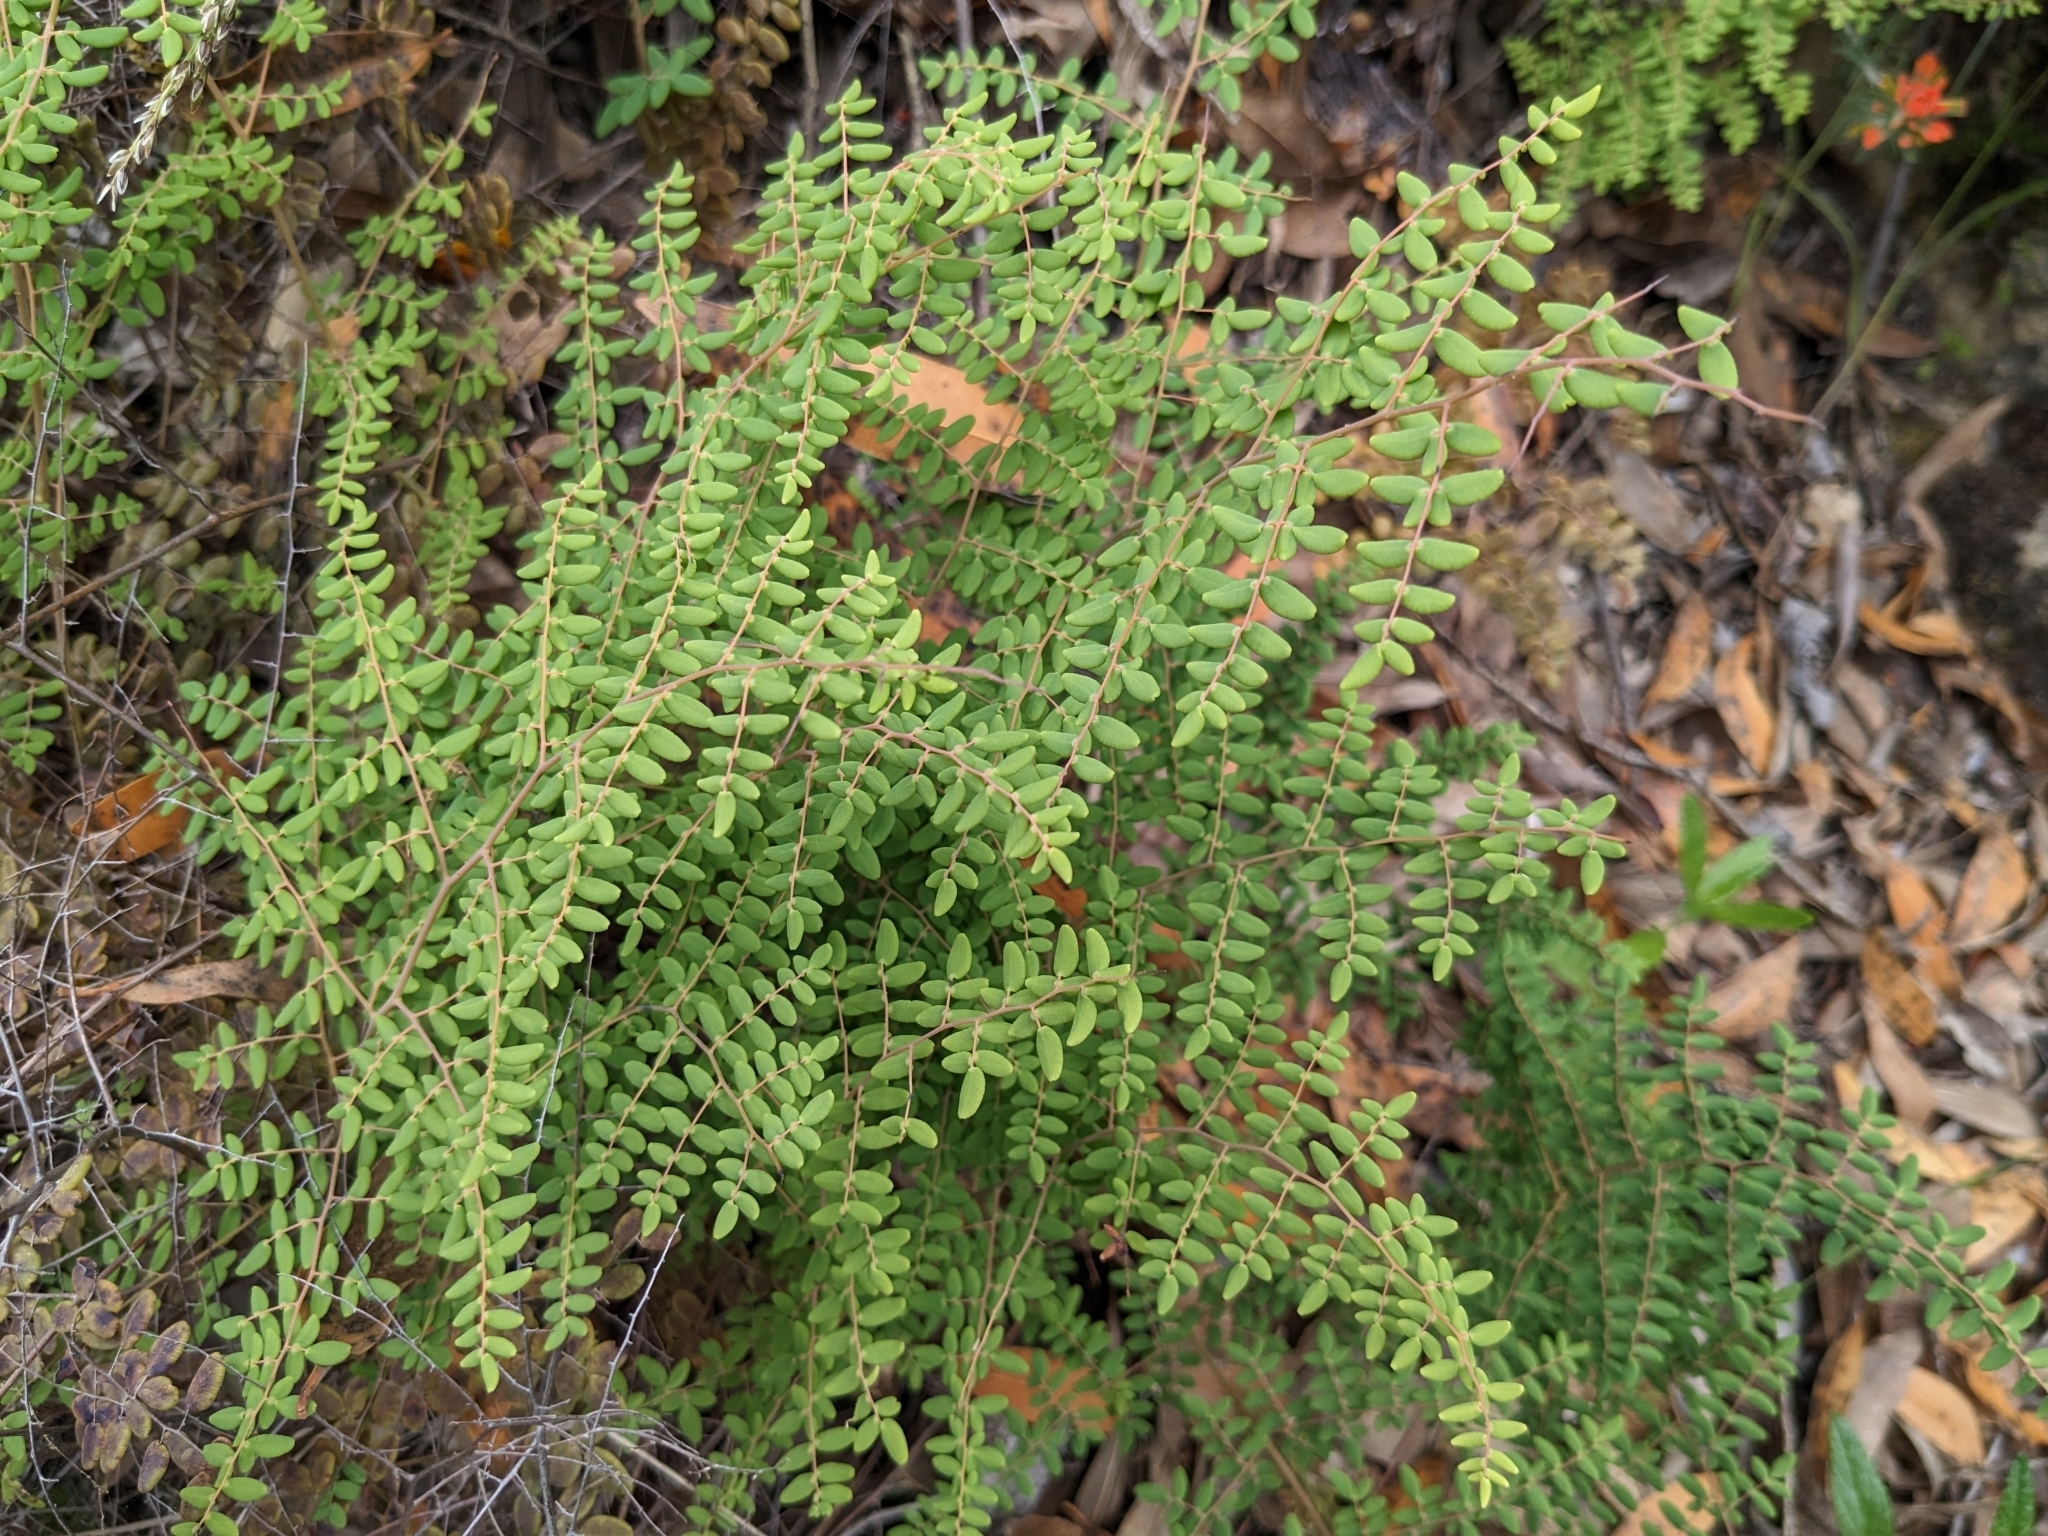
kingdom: Plantae
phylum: Tracheophyta
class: Polypodiopsida
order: Polypodiales
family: Pteridaceae
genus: Pellaea
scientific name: Pellaea andromedifolia
